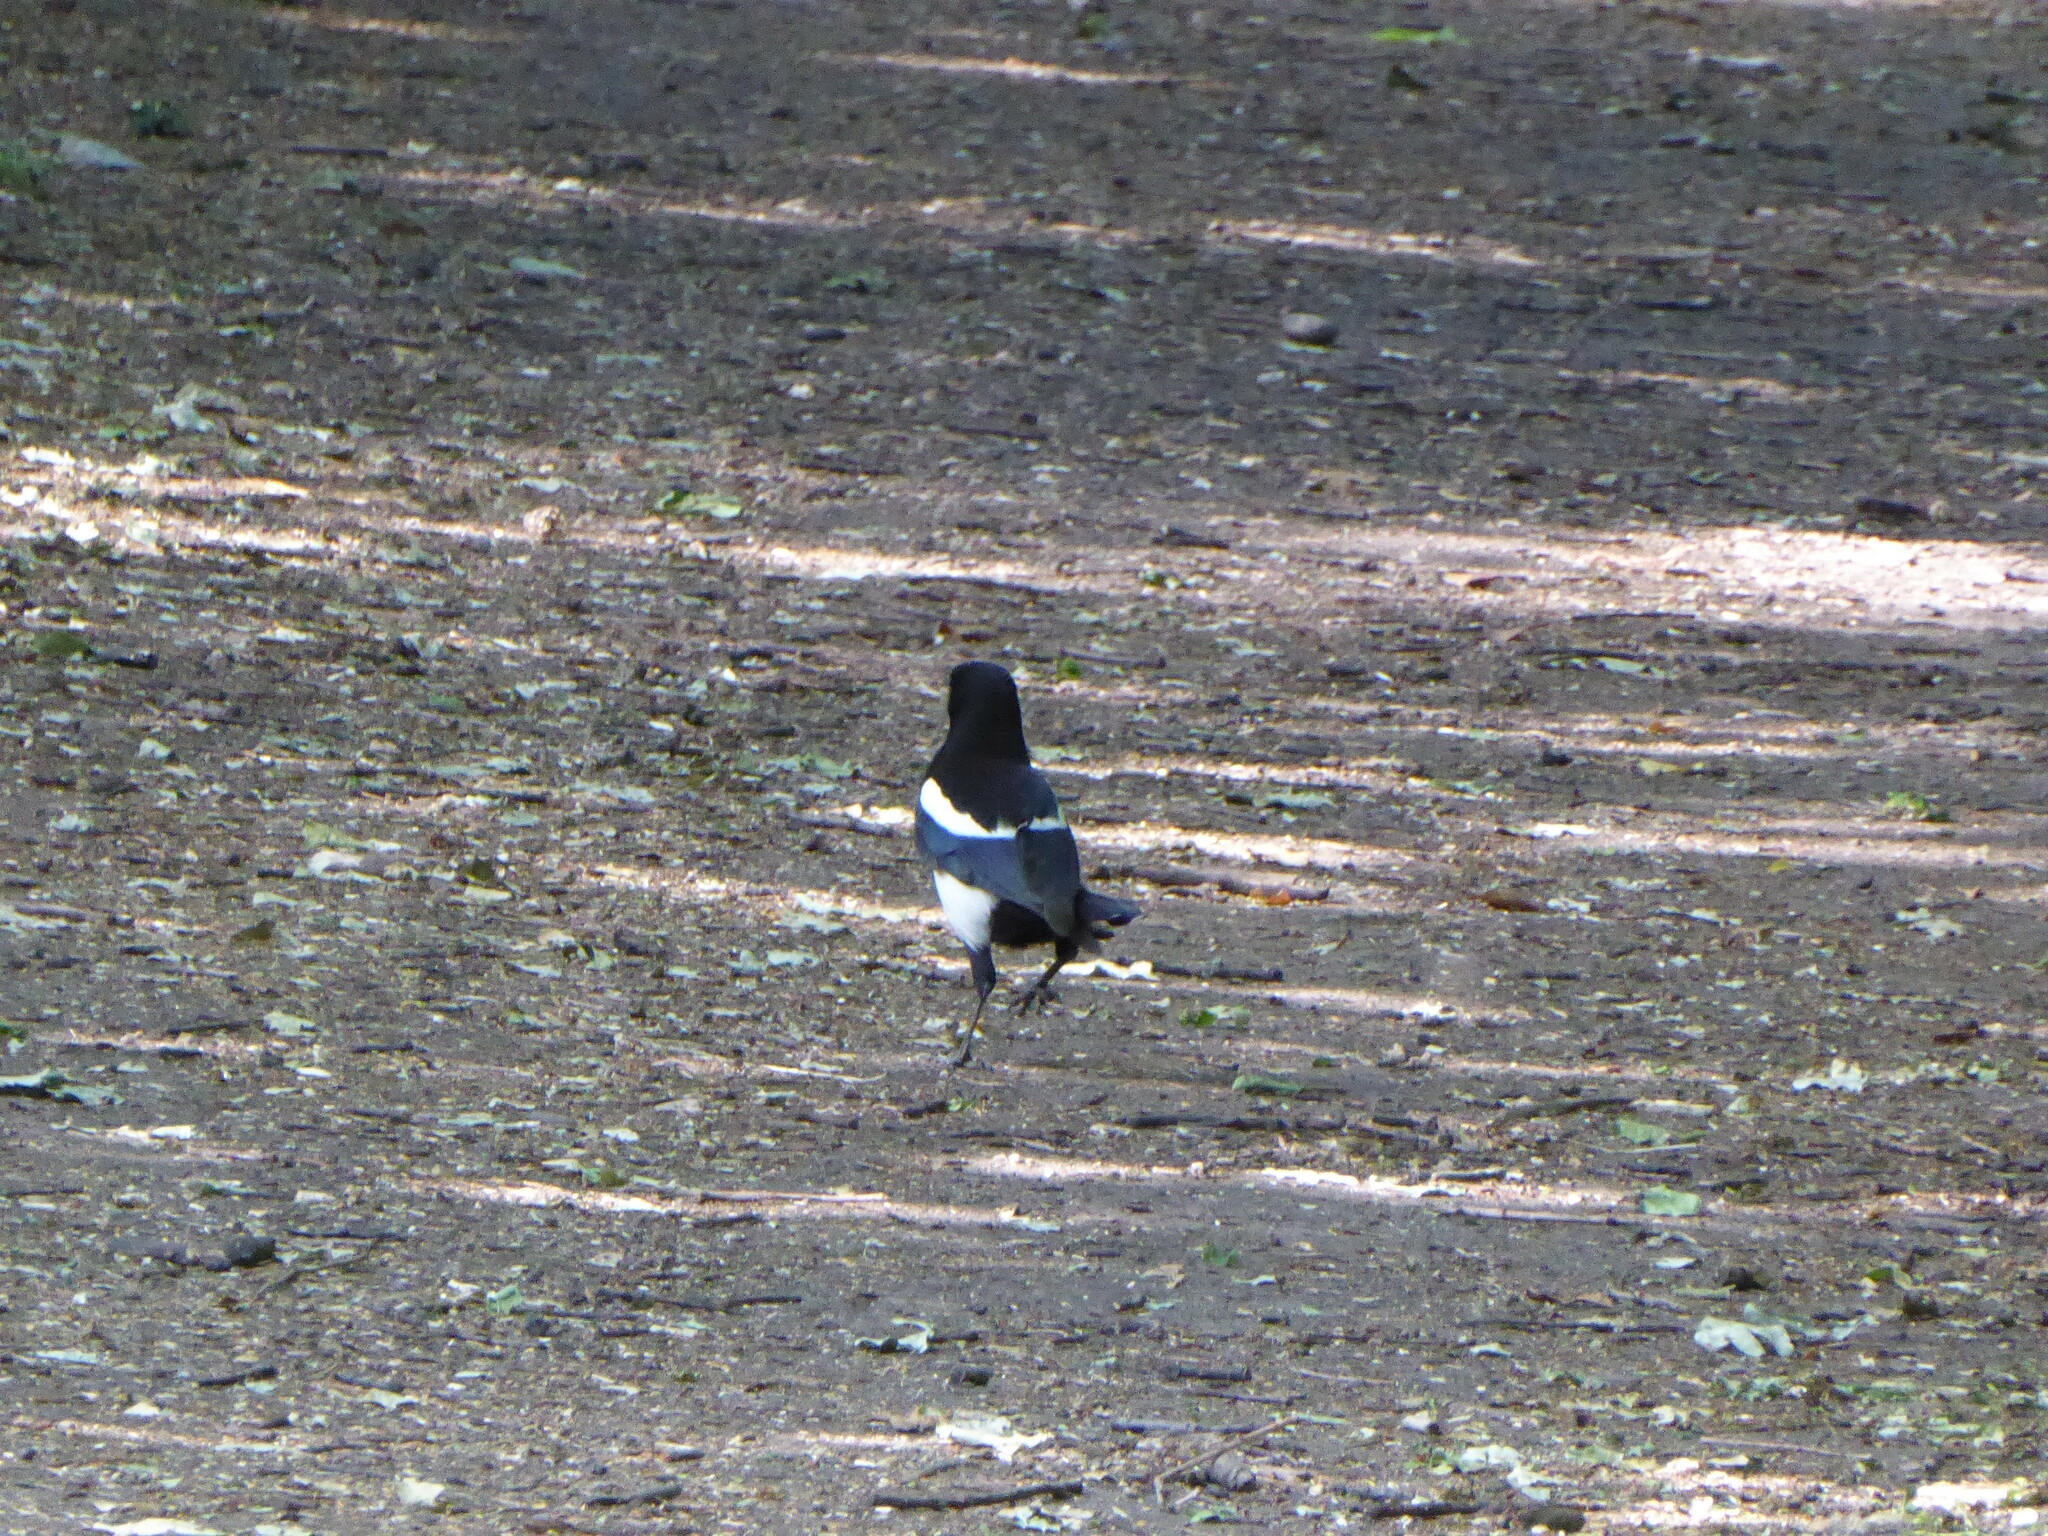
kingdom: Animalia
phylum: Chordata
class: Aves
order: Passeriformes
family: Corvidae
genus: Pica
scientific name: Pica pica
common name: Eurasian magpie
